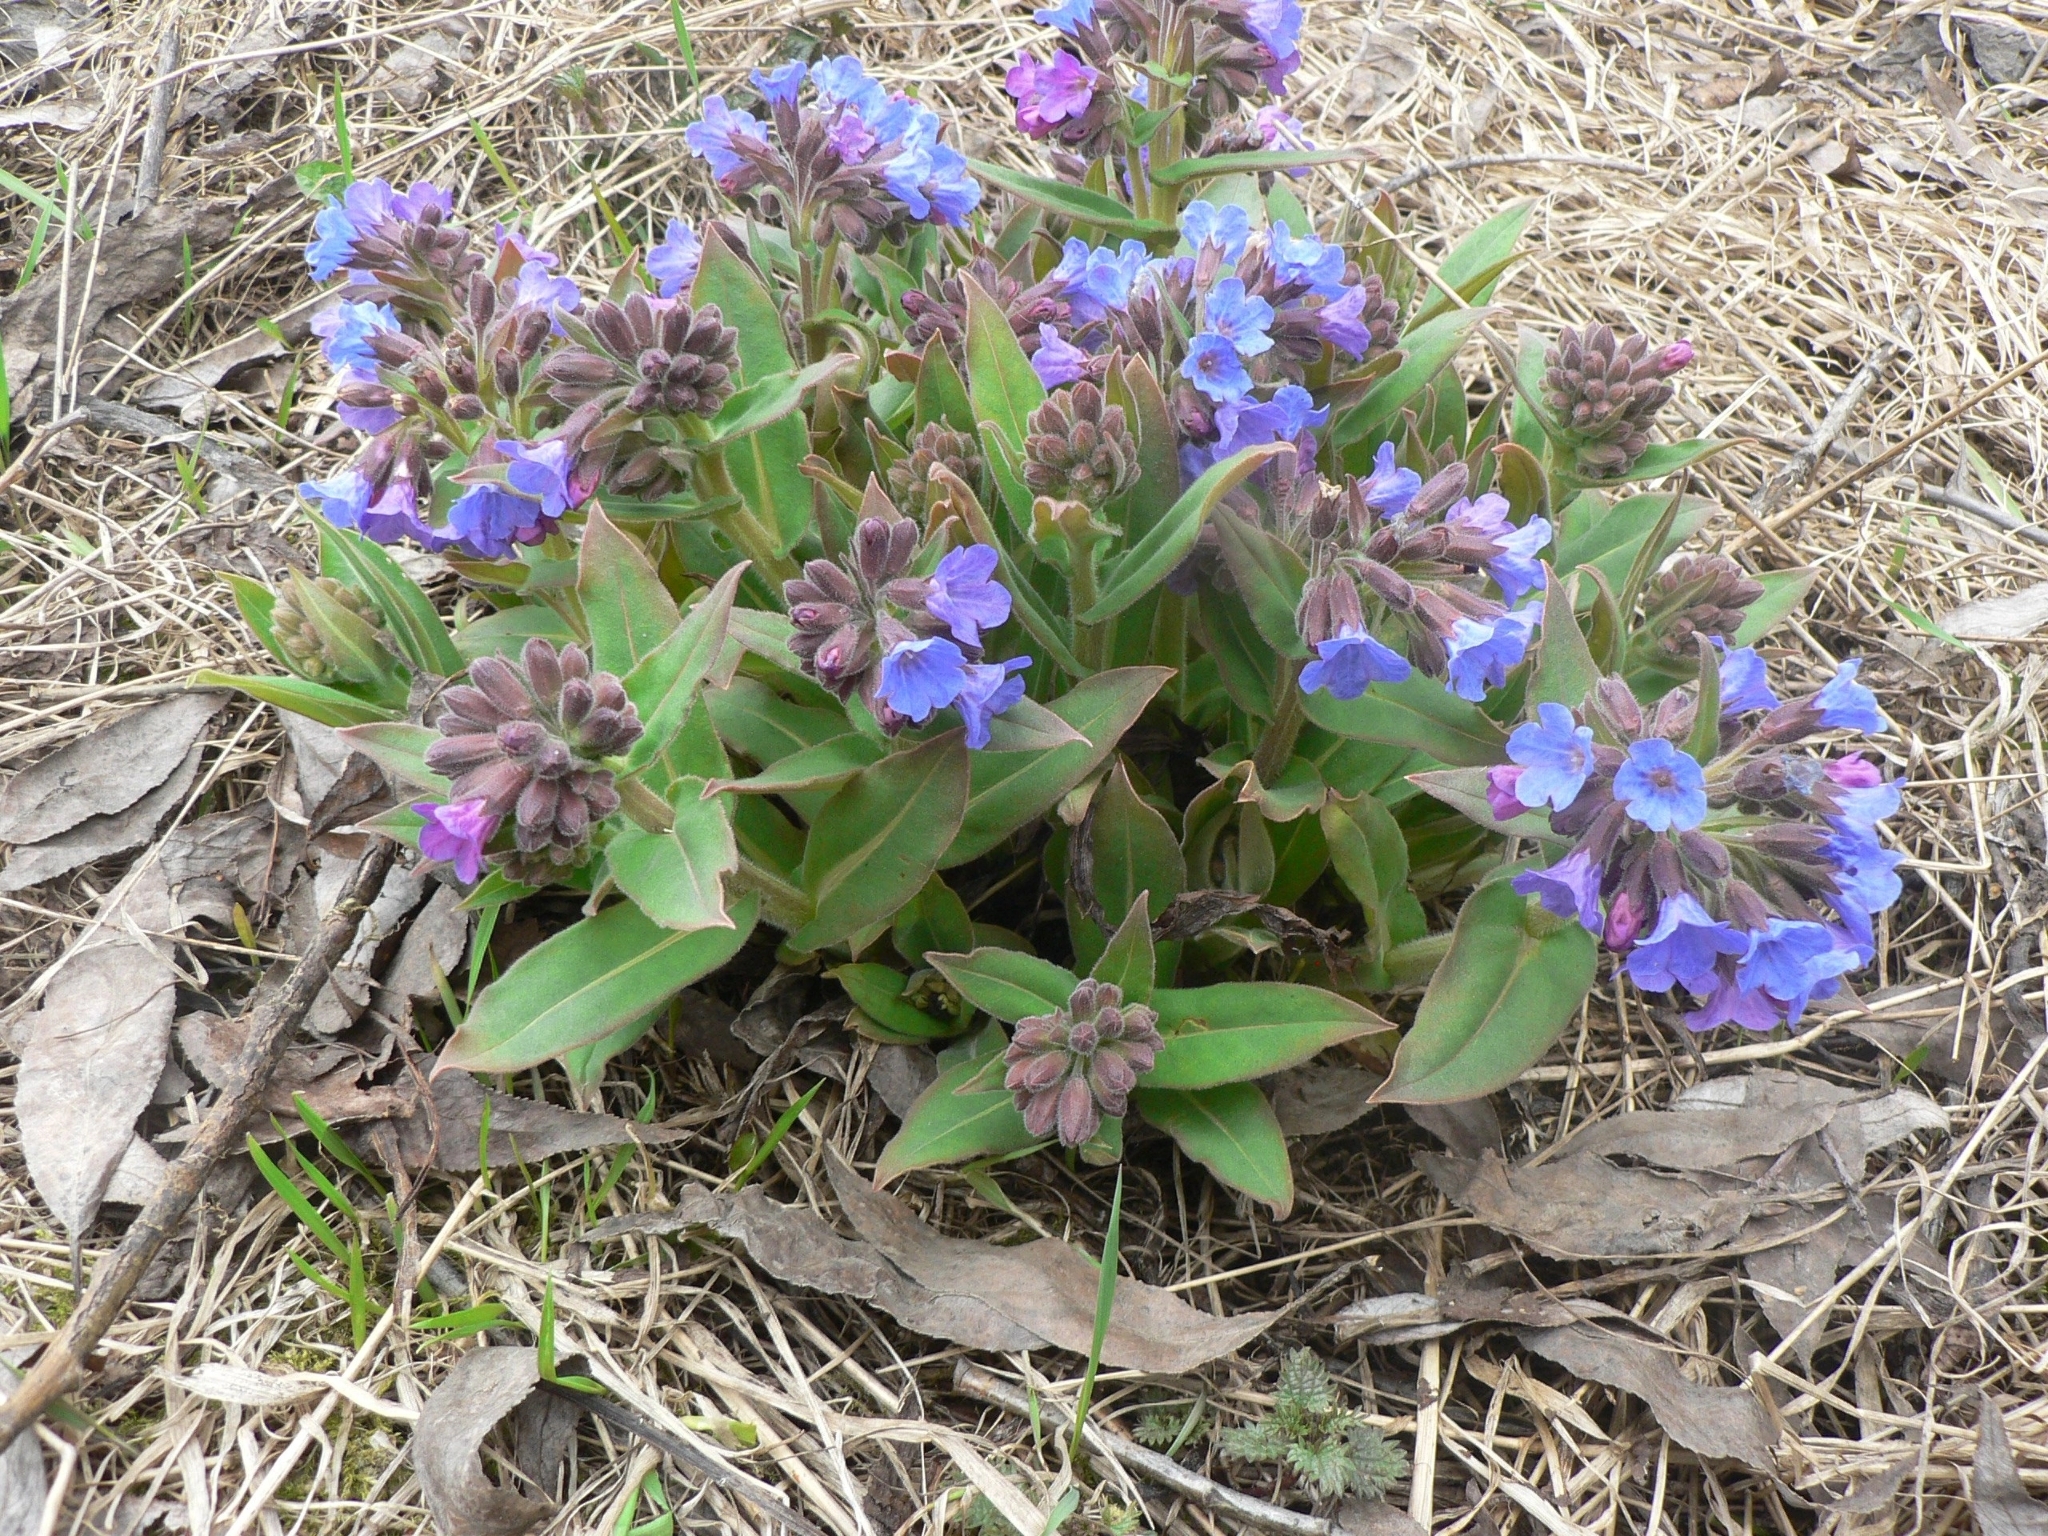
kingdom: Plantae
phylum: Tracheophyta
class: Magnoliopsida
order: Boraginales
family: Boraginaceae
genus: Pulmonaria
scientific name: Pulmonaria mollis
